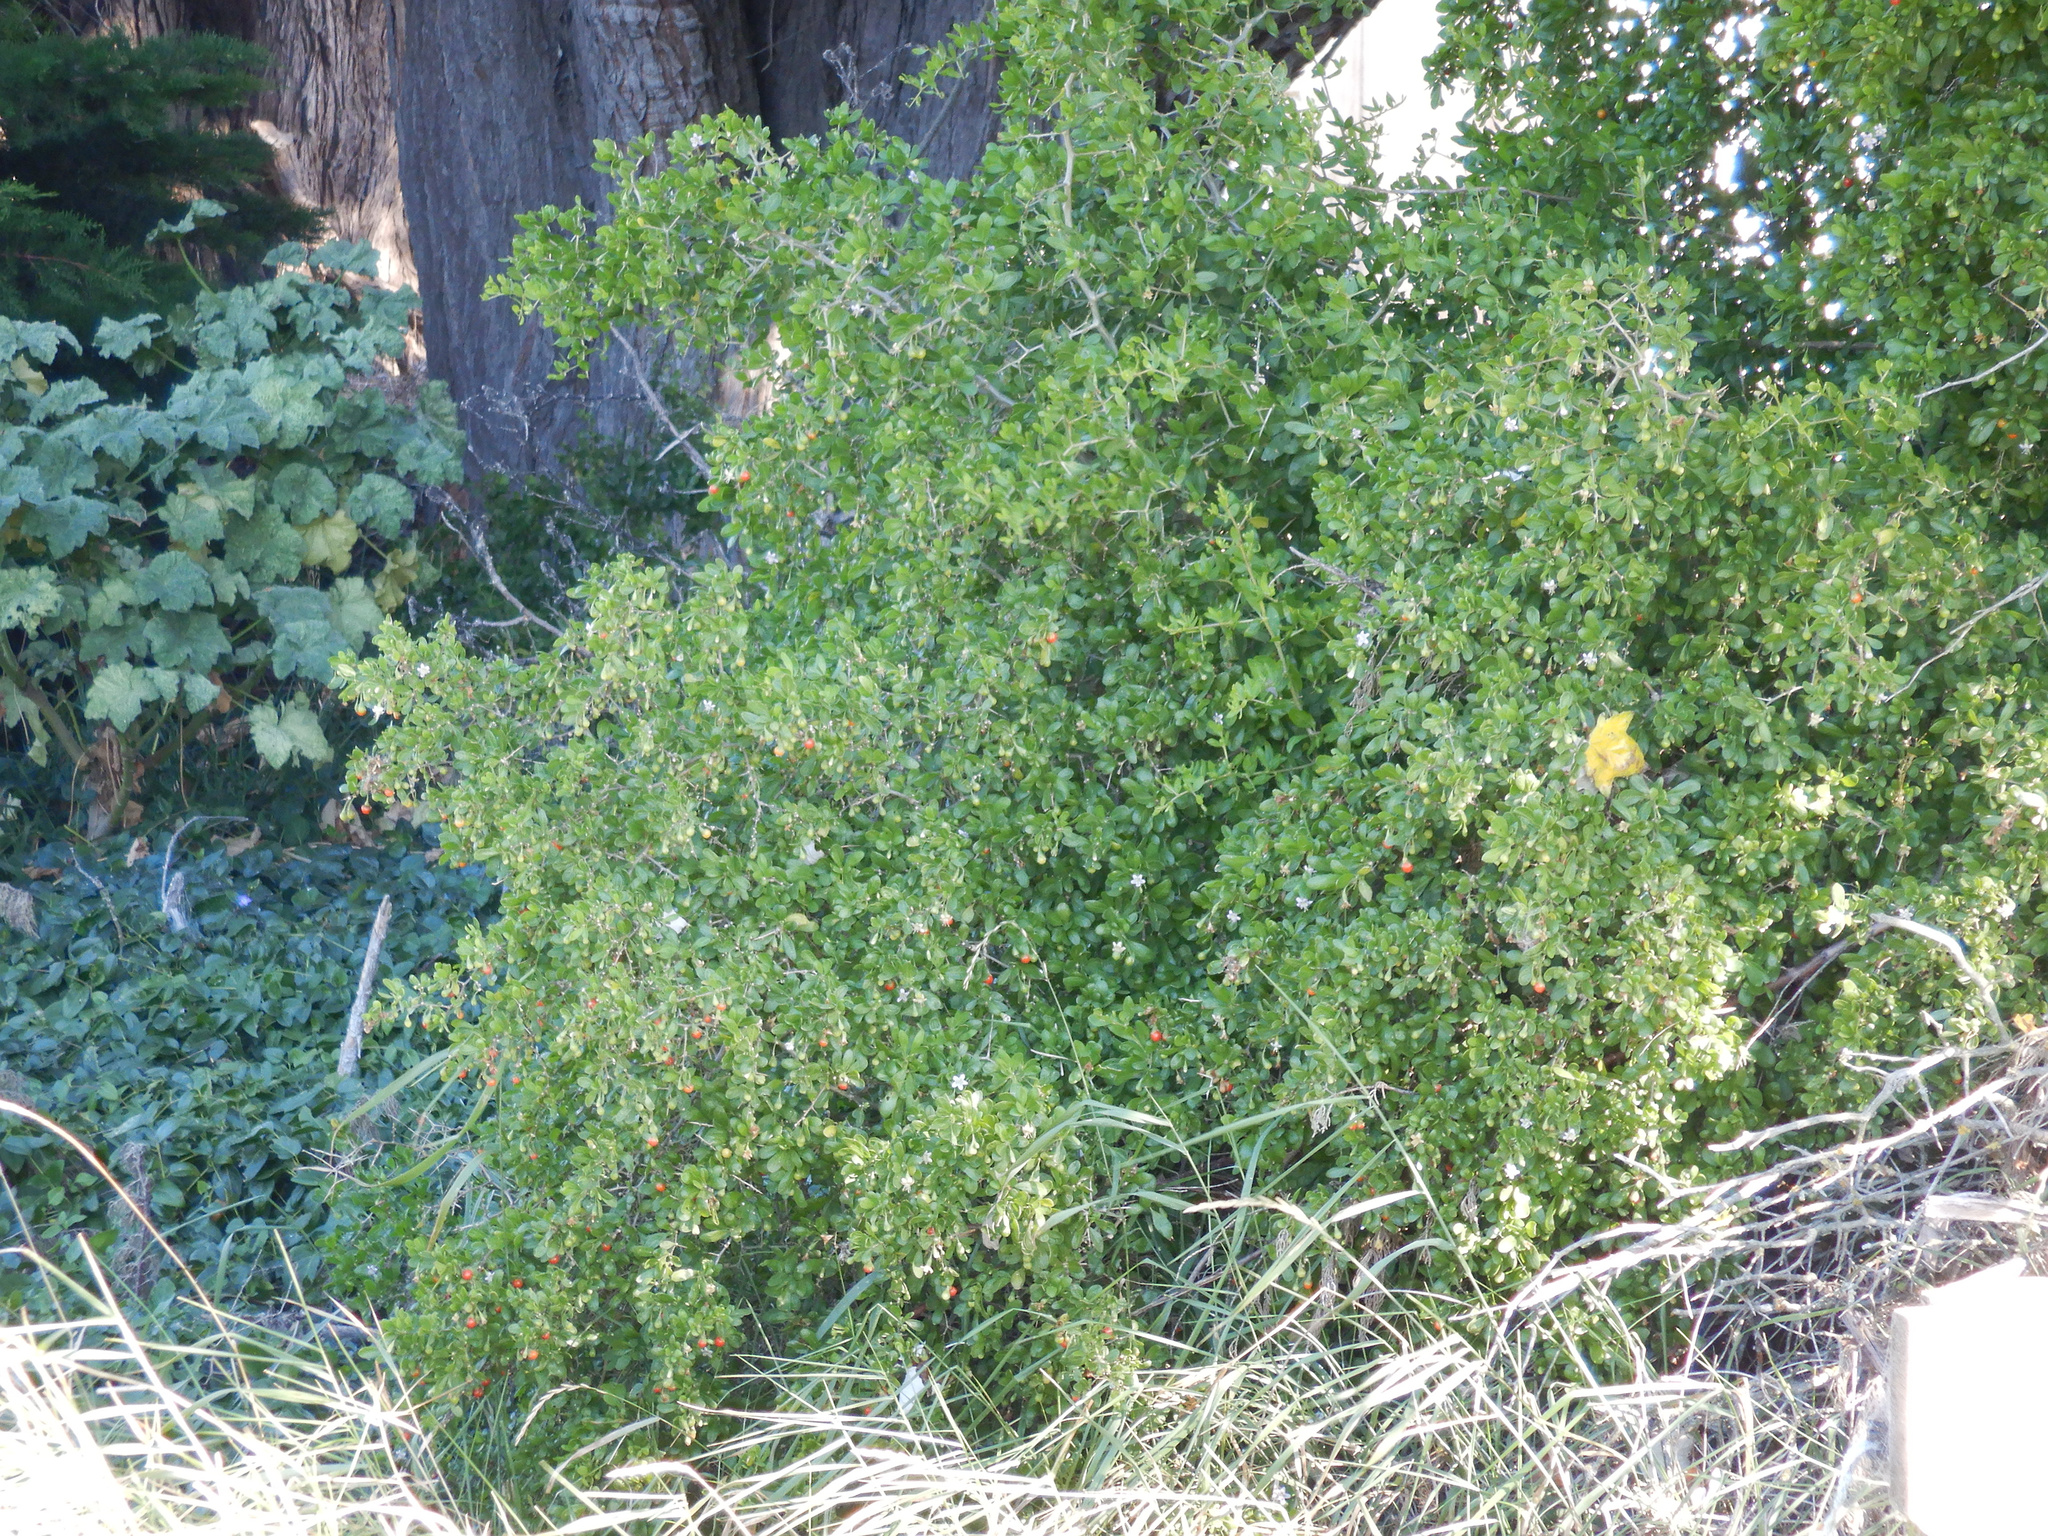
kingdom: Plantae
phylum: Tracheophyta
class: Magnoliopsida
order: Solanales
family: Solanaceae
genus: Lycium
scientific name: Lycium ferocissimum
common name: African boxthorn
